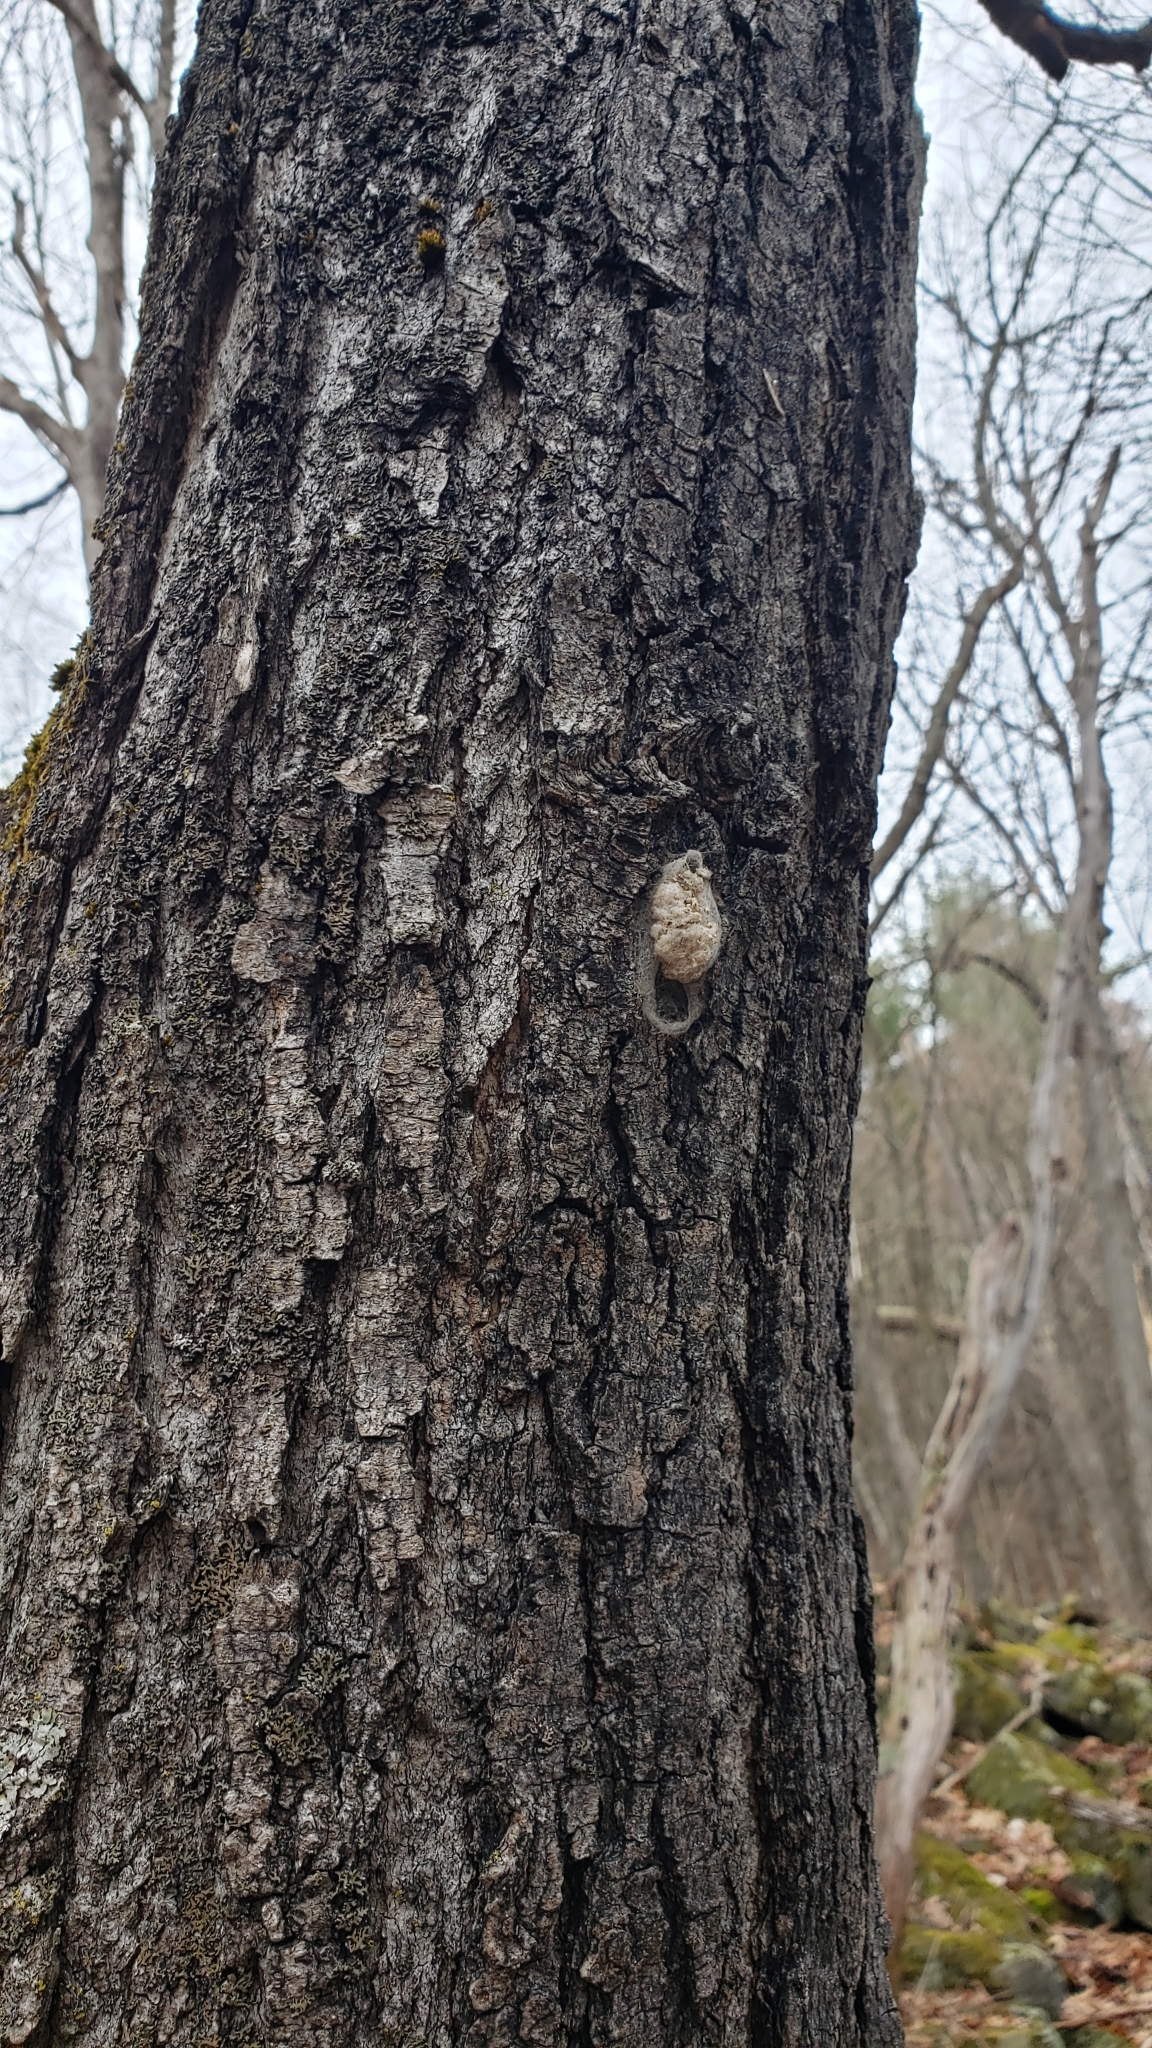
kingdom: Animalia
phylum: Arthropoda
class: Insecta
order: Lepidoptera
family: Erebidae
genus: Lymantria
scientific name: Lymantria dispar
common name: Gypsy moth
